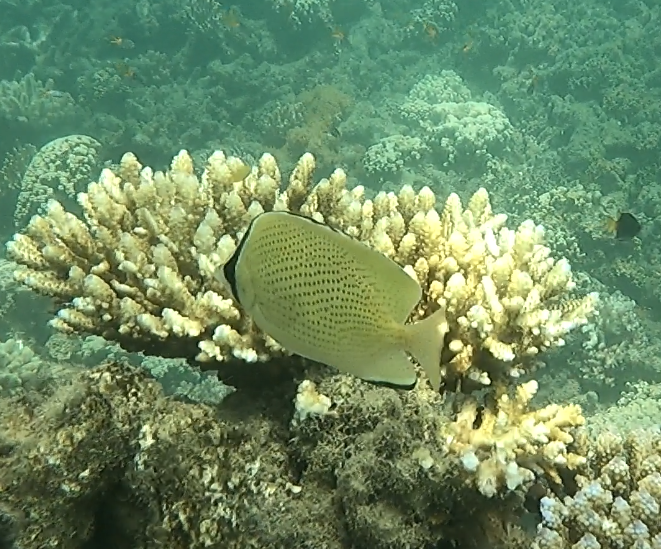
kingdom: Animalia
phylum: Chordata
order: Perciformes
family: Chaetodontidae
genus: Chaetodon
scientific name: Chaetodon citrinellus
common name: Speckled butterflyfish
